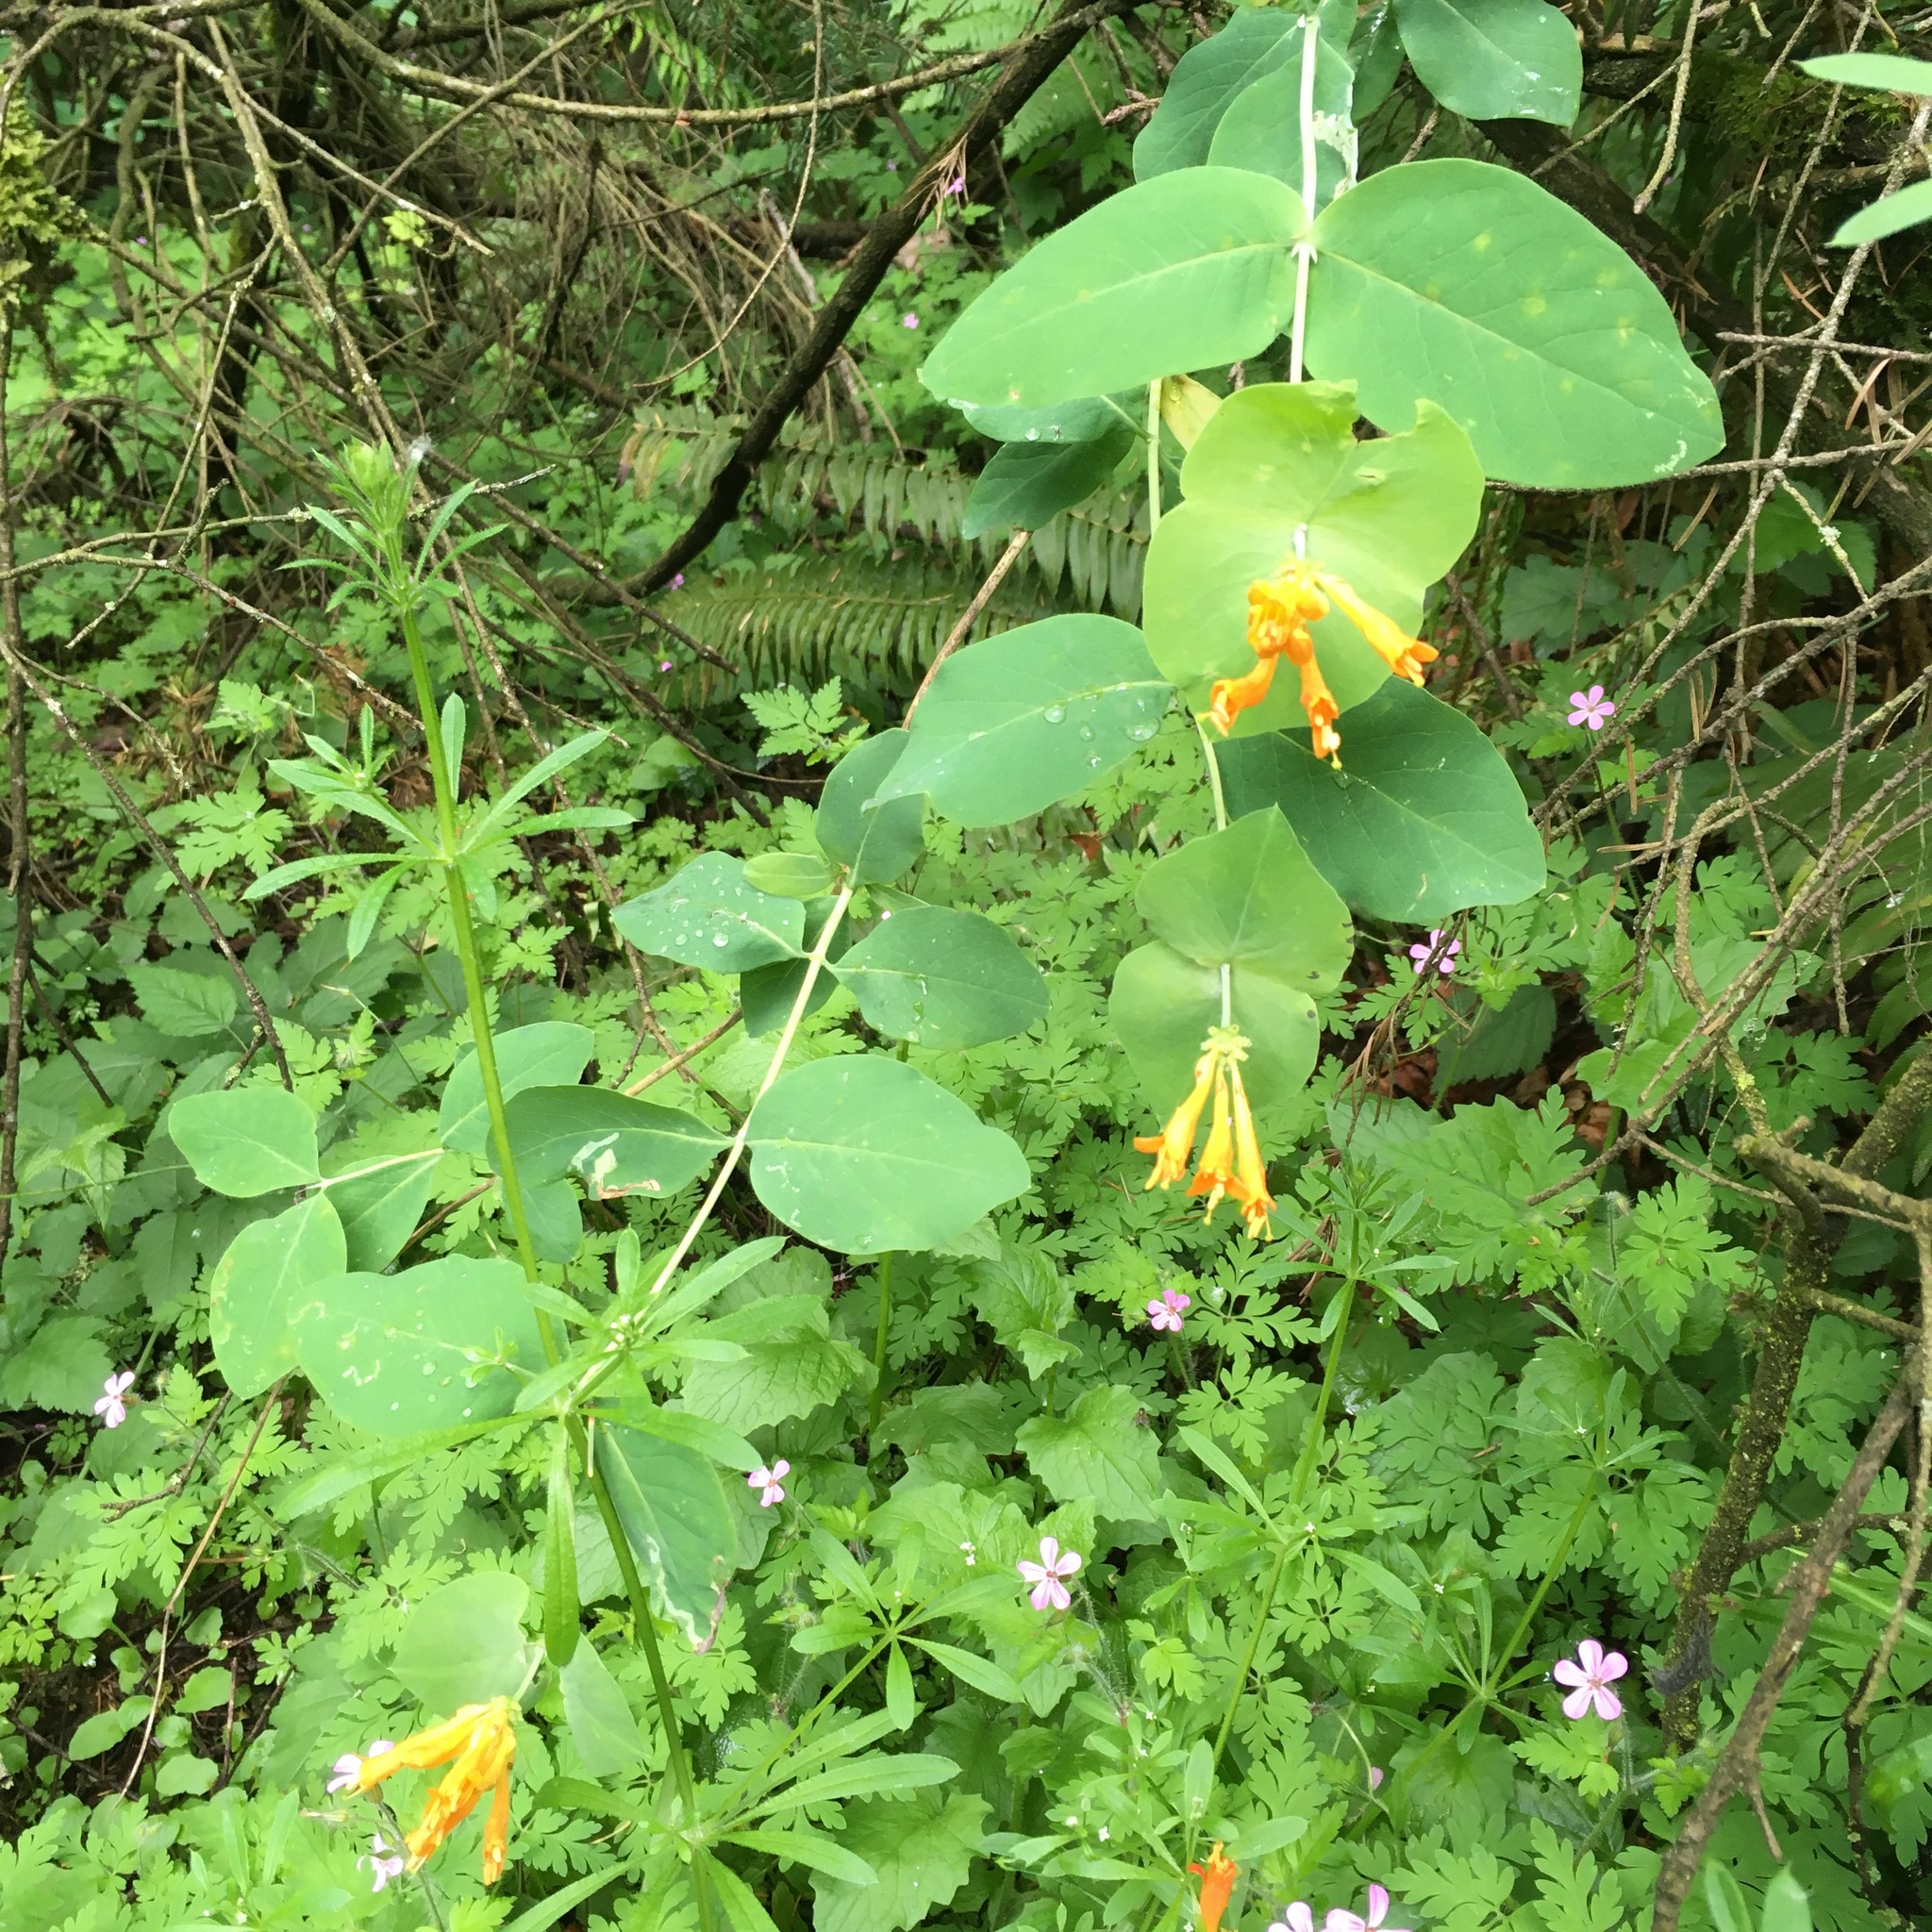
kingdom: Plantae
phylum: Tracheophyta
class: Magnoliopsida
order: Dipsacales
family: Caprifoliaceae
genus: Lonicera
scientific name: Lonicera ciliosa
